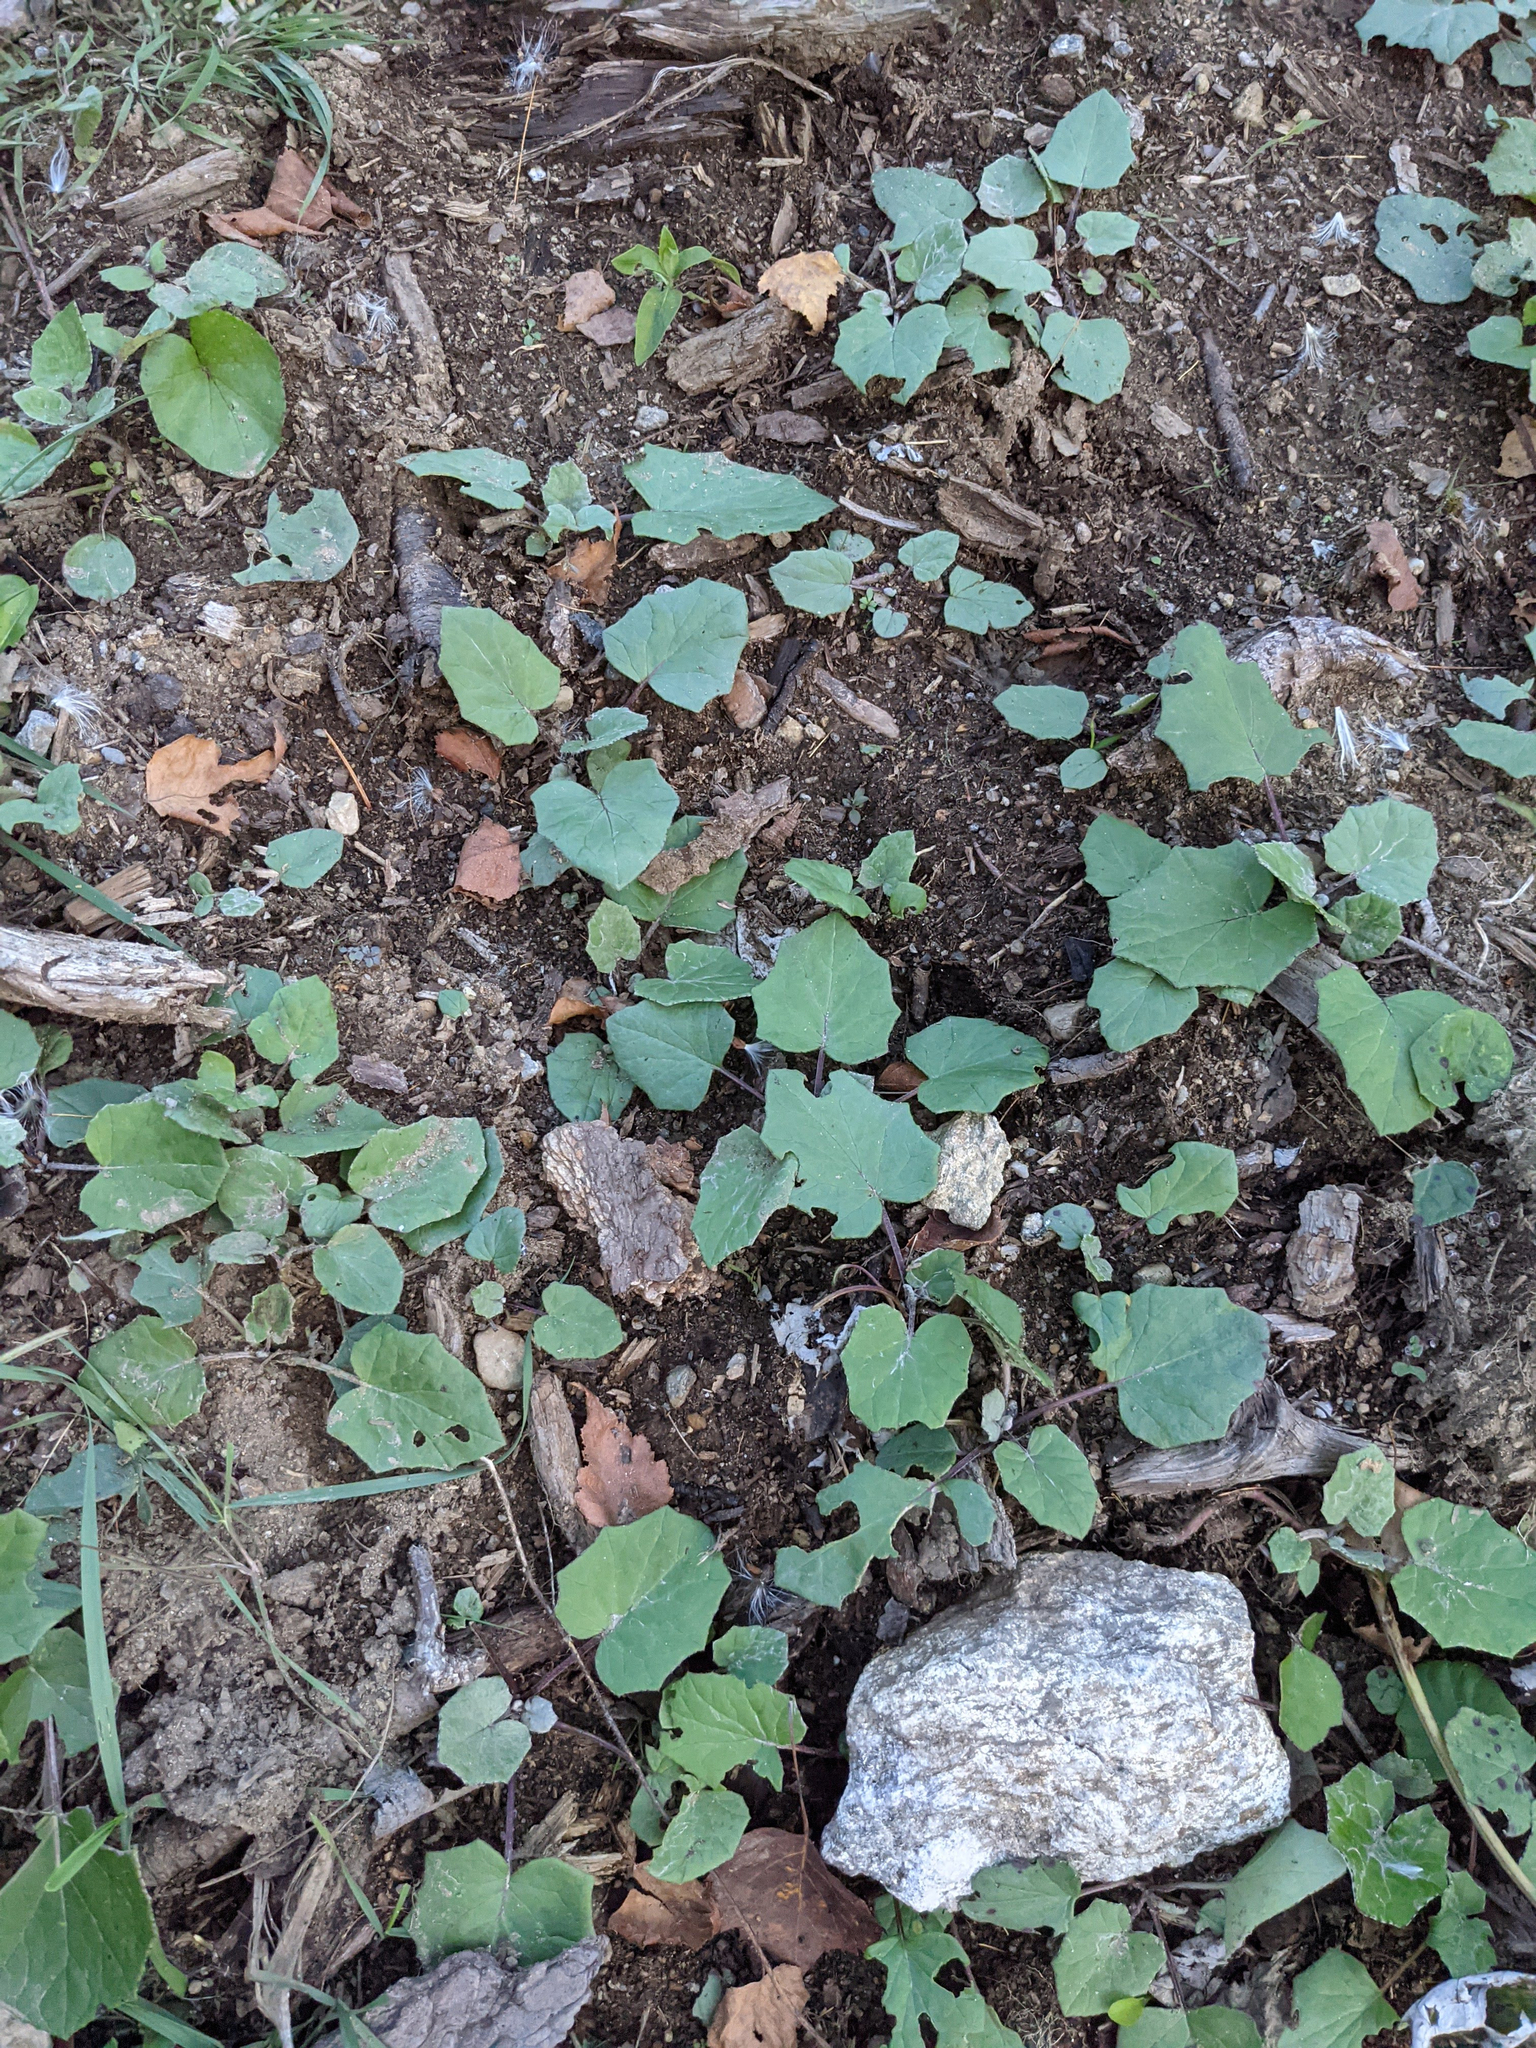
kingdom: Plantae
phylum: Tracheophyta
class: Magnoliopsida
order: Asterales
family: Asteraceae
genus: Tussilago
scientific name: Tussilago farfara
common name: Coltsfoot
